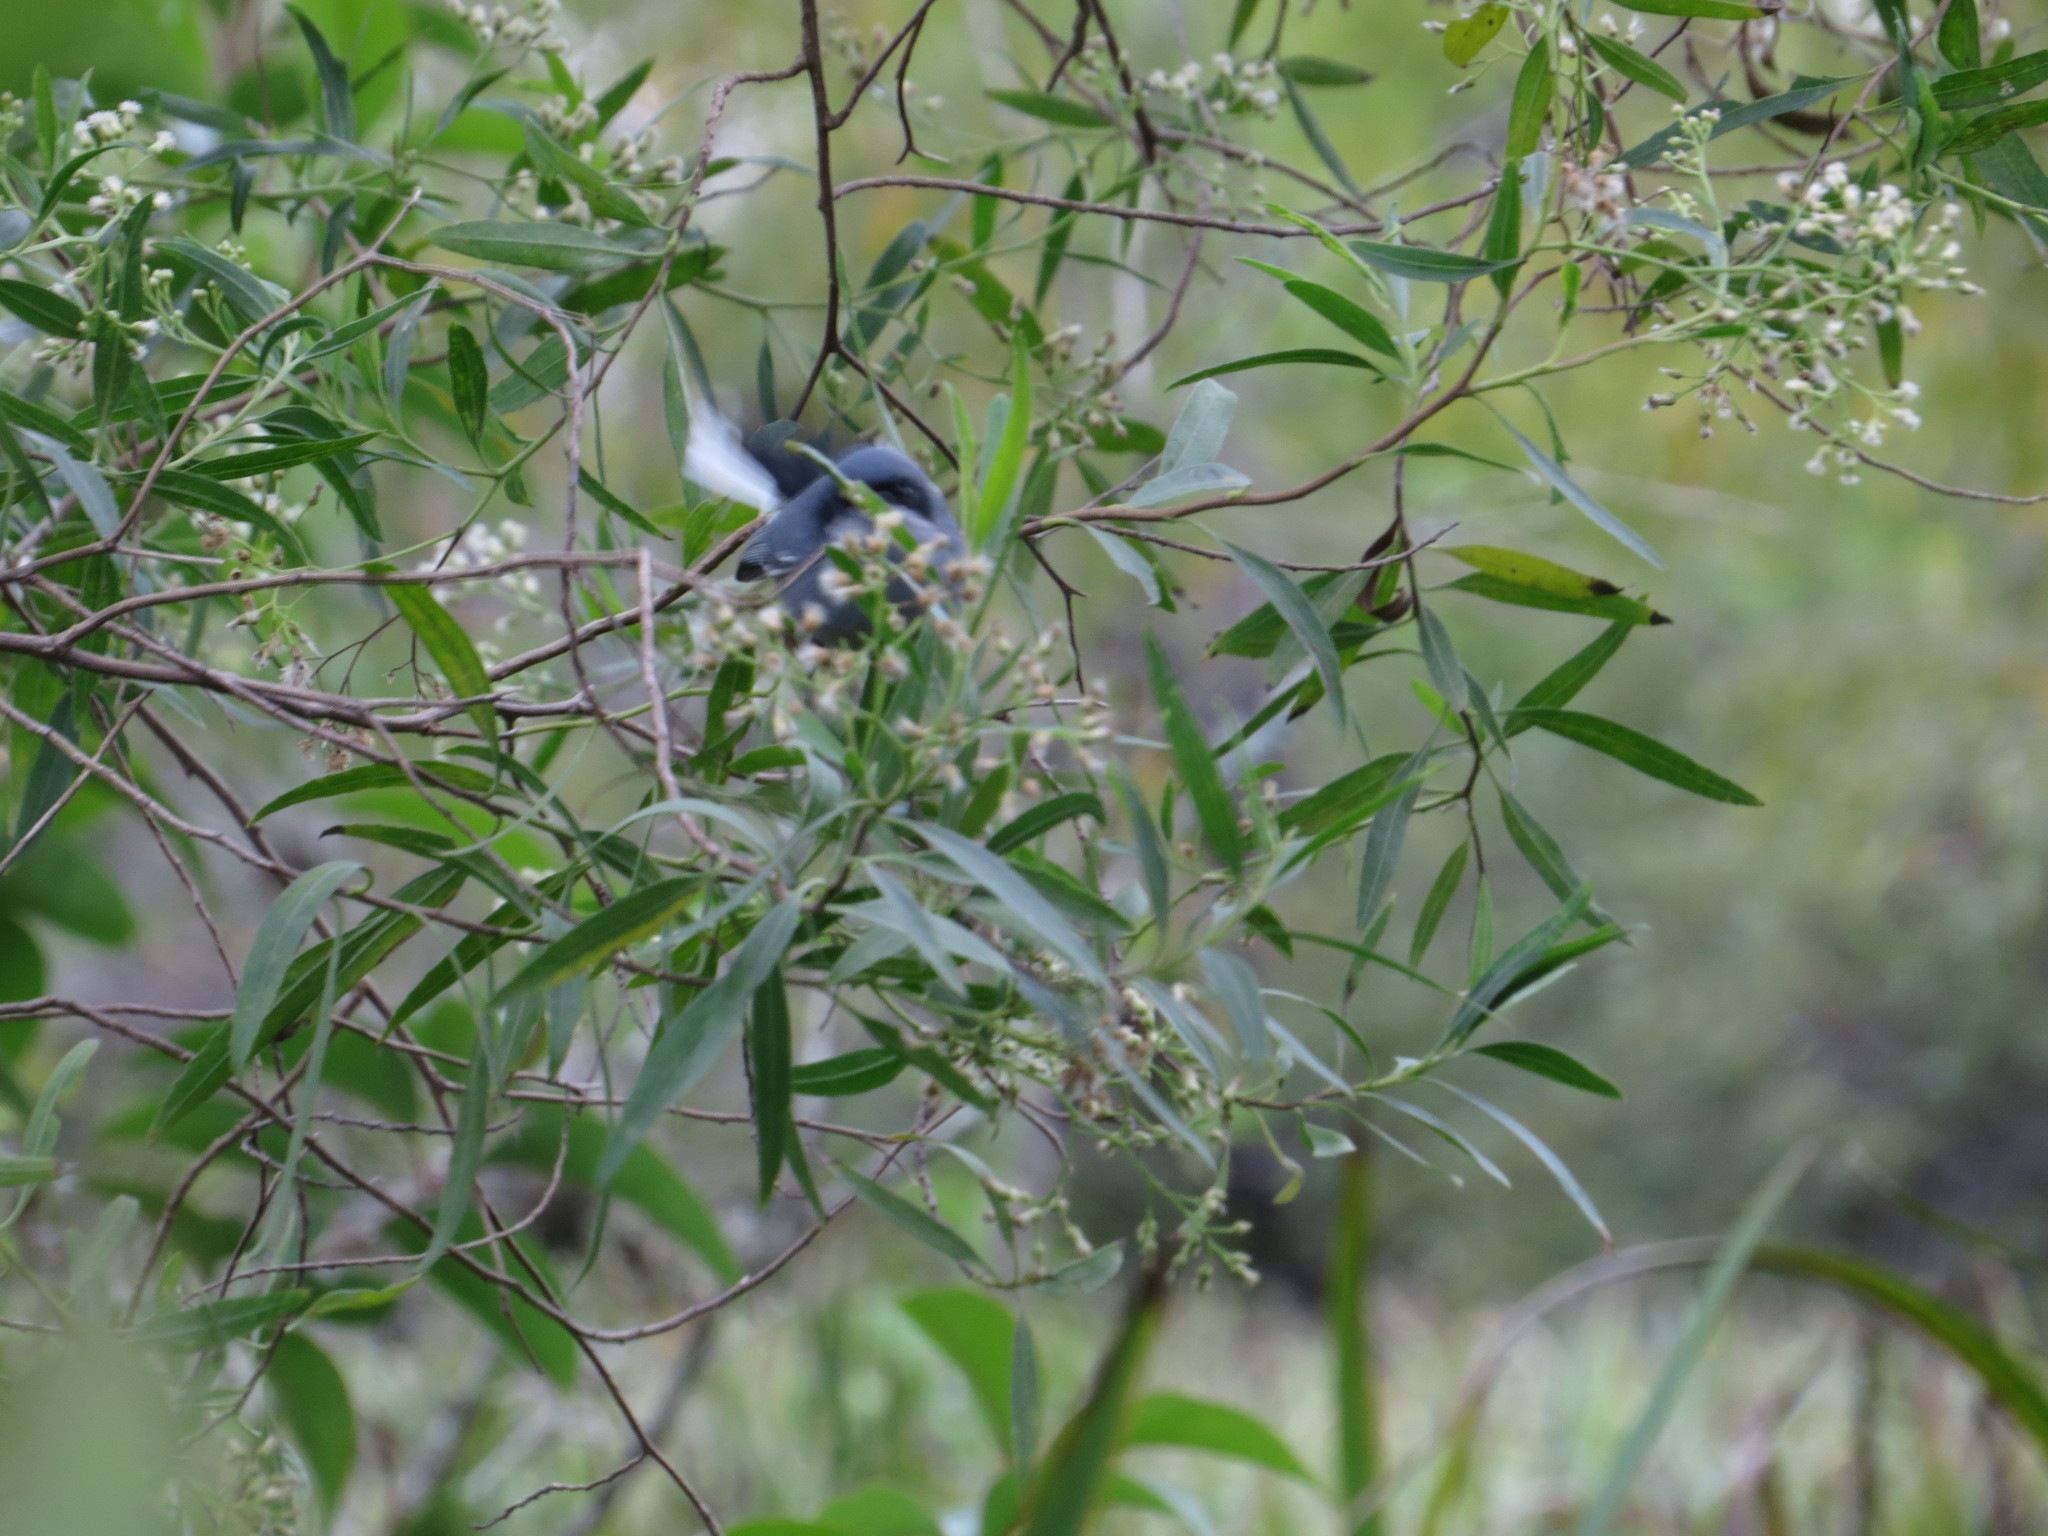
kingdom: Animalia
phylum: Chordata
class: Aves
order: Passeriformes
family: Polioptilidae
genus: Polioptila
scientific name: Polioptila dumicola
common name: Masked gnatcatcher
